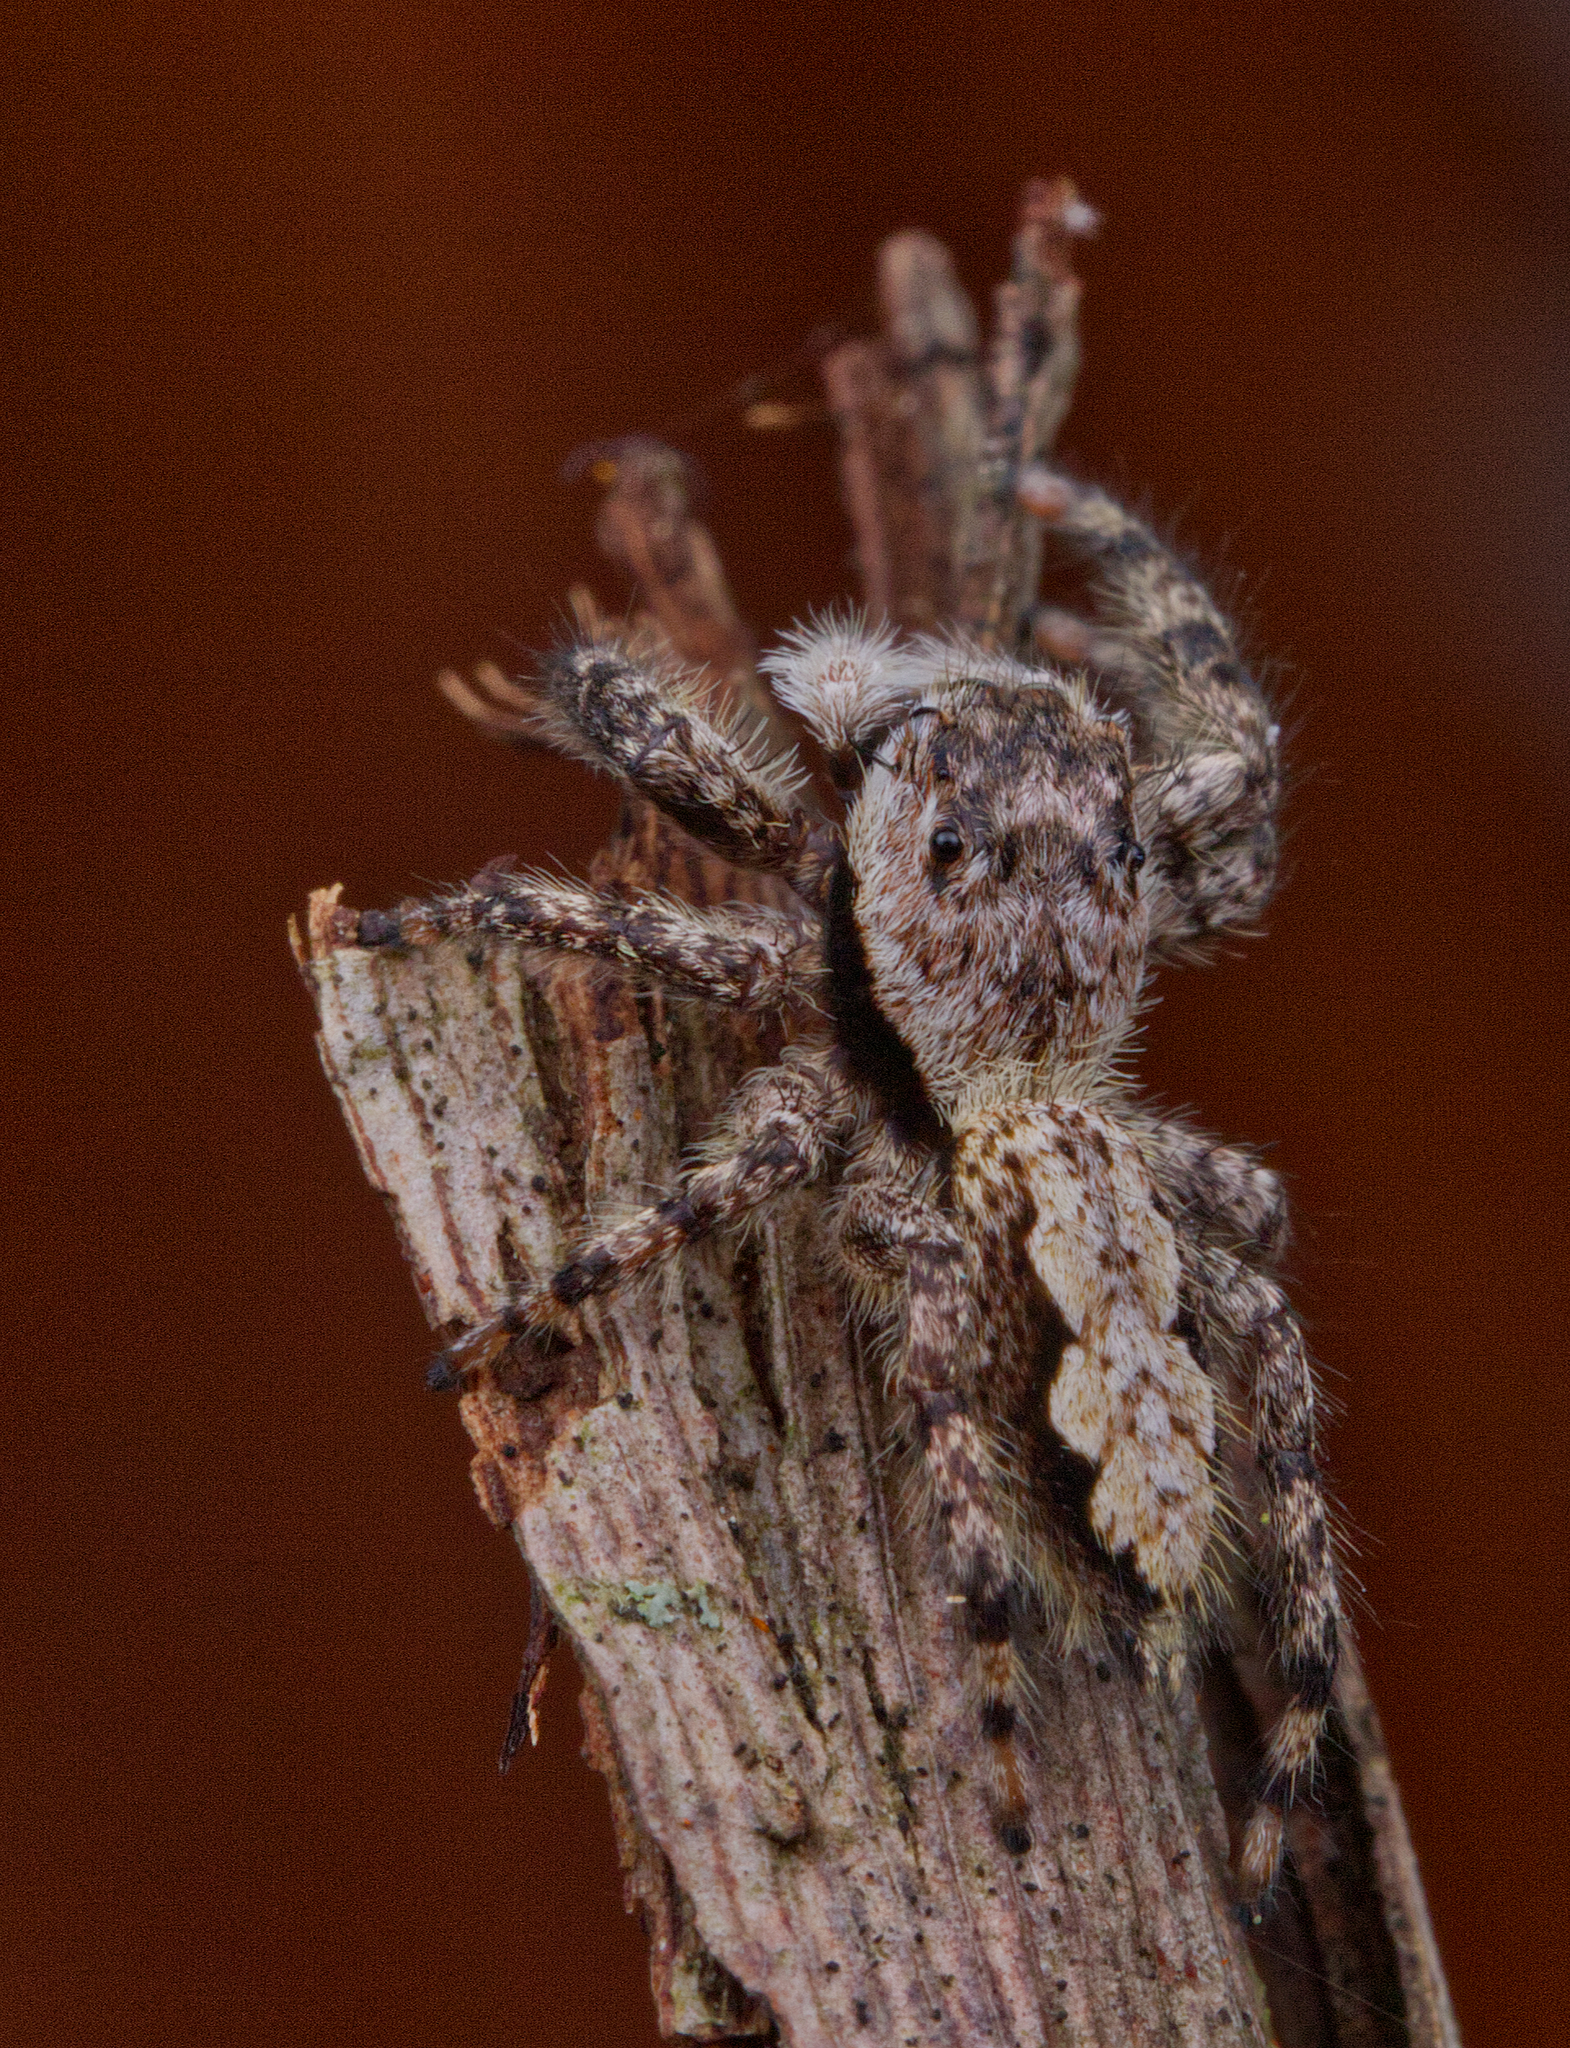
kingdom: Animalia
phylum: Arthropoda
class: Arachnida
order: Araneae
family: Salticidae
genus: Platycryptus
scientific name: Platycryptus undatus
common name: Tan jumping spider
